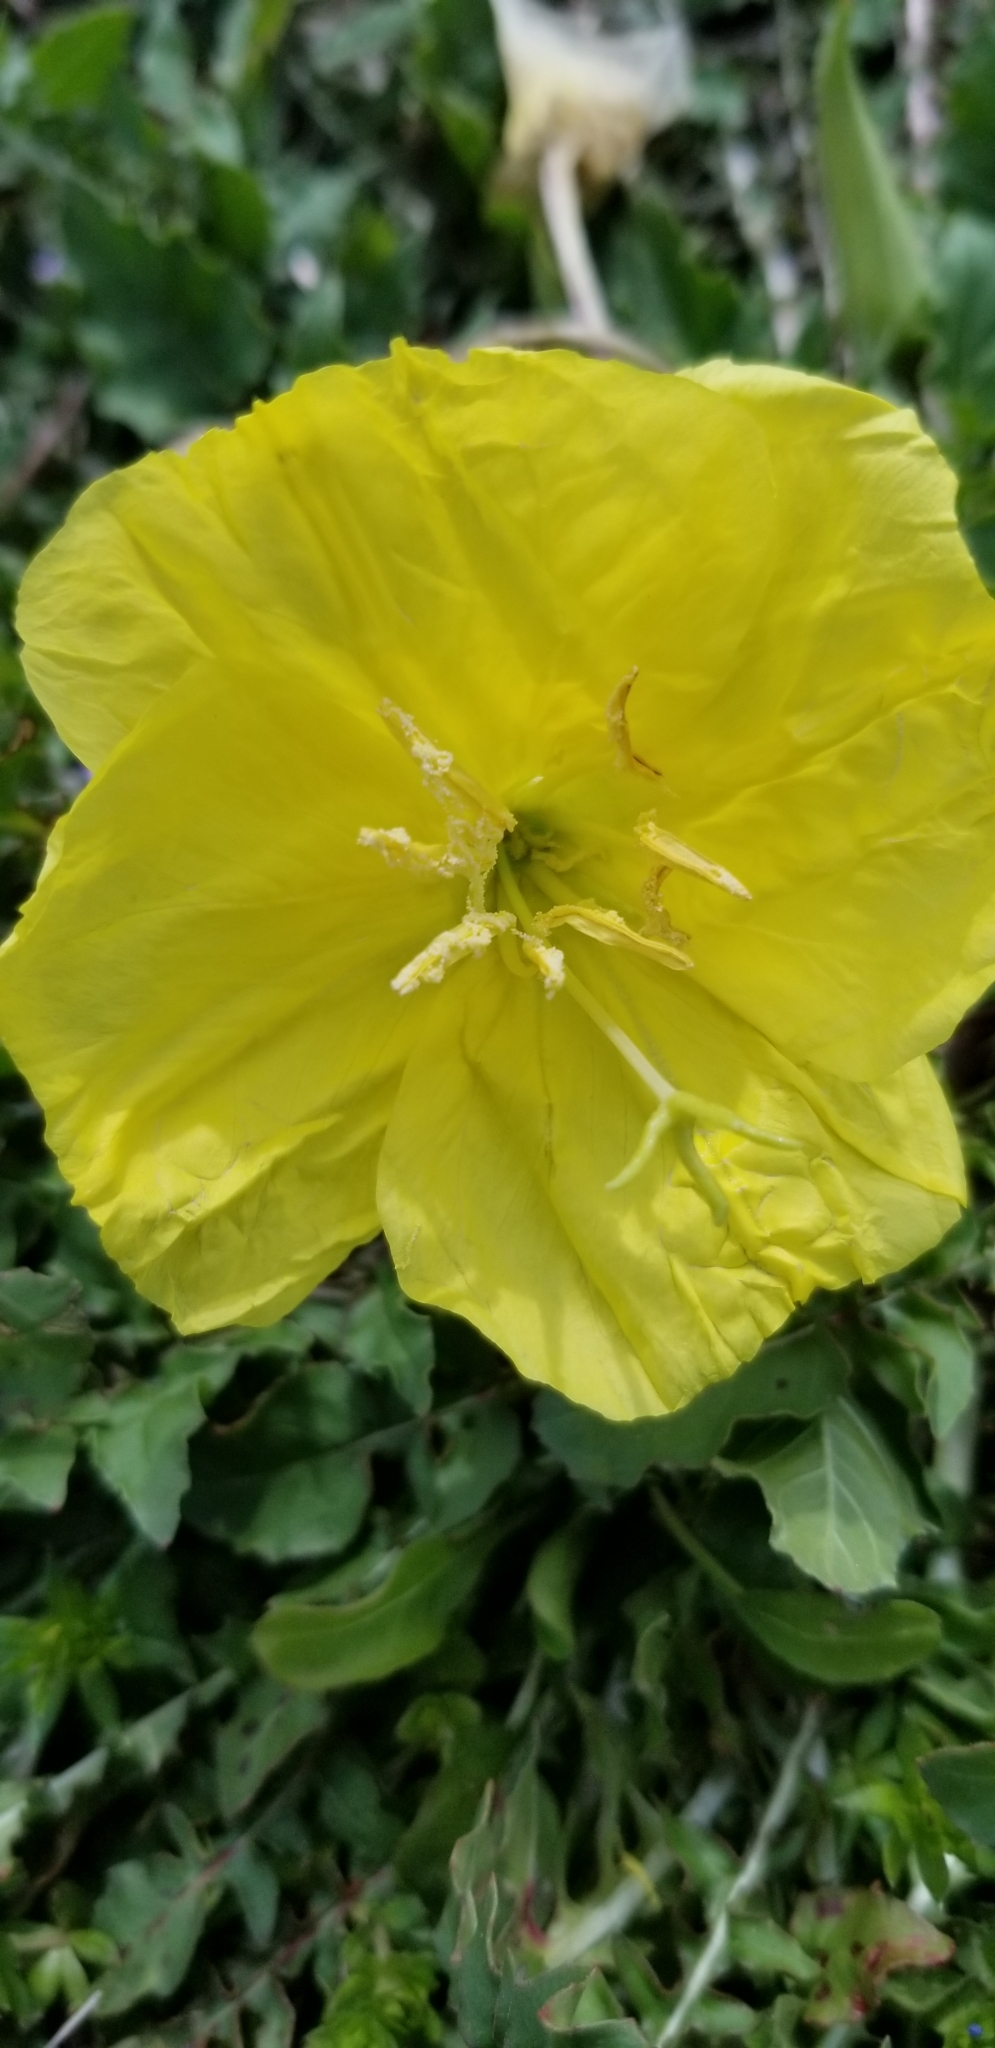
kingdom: Plantae
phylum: Tracheophyta
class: Magnoliopsida
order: Myrtales
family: Onagraceae
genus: Oenothera
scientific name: Oenothera triloba
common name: Sessile evening-primrose
